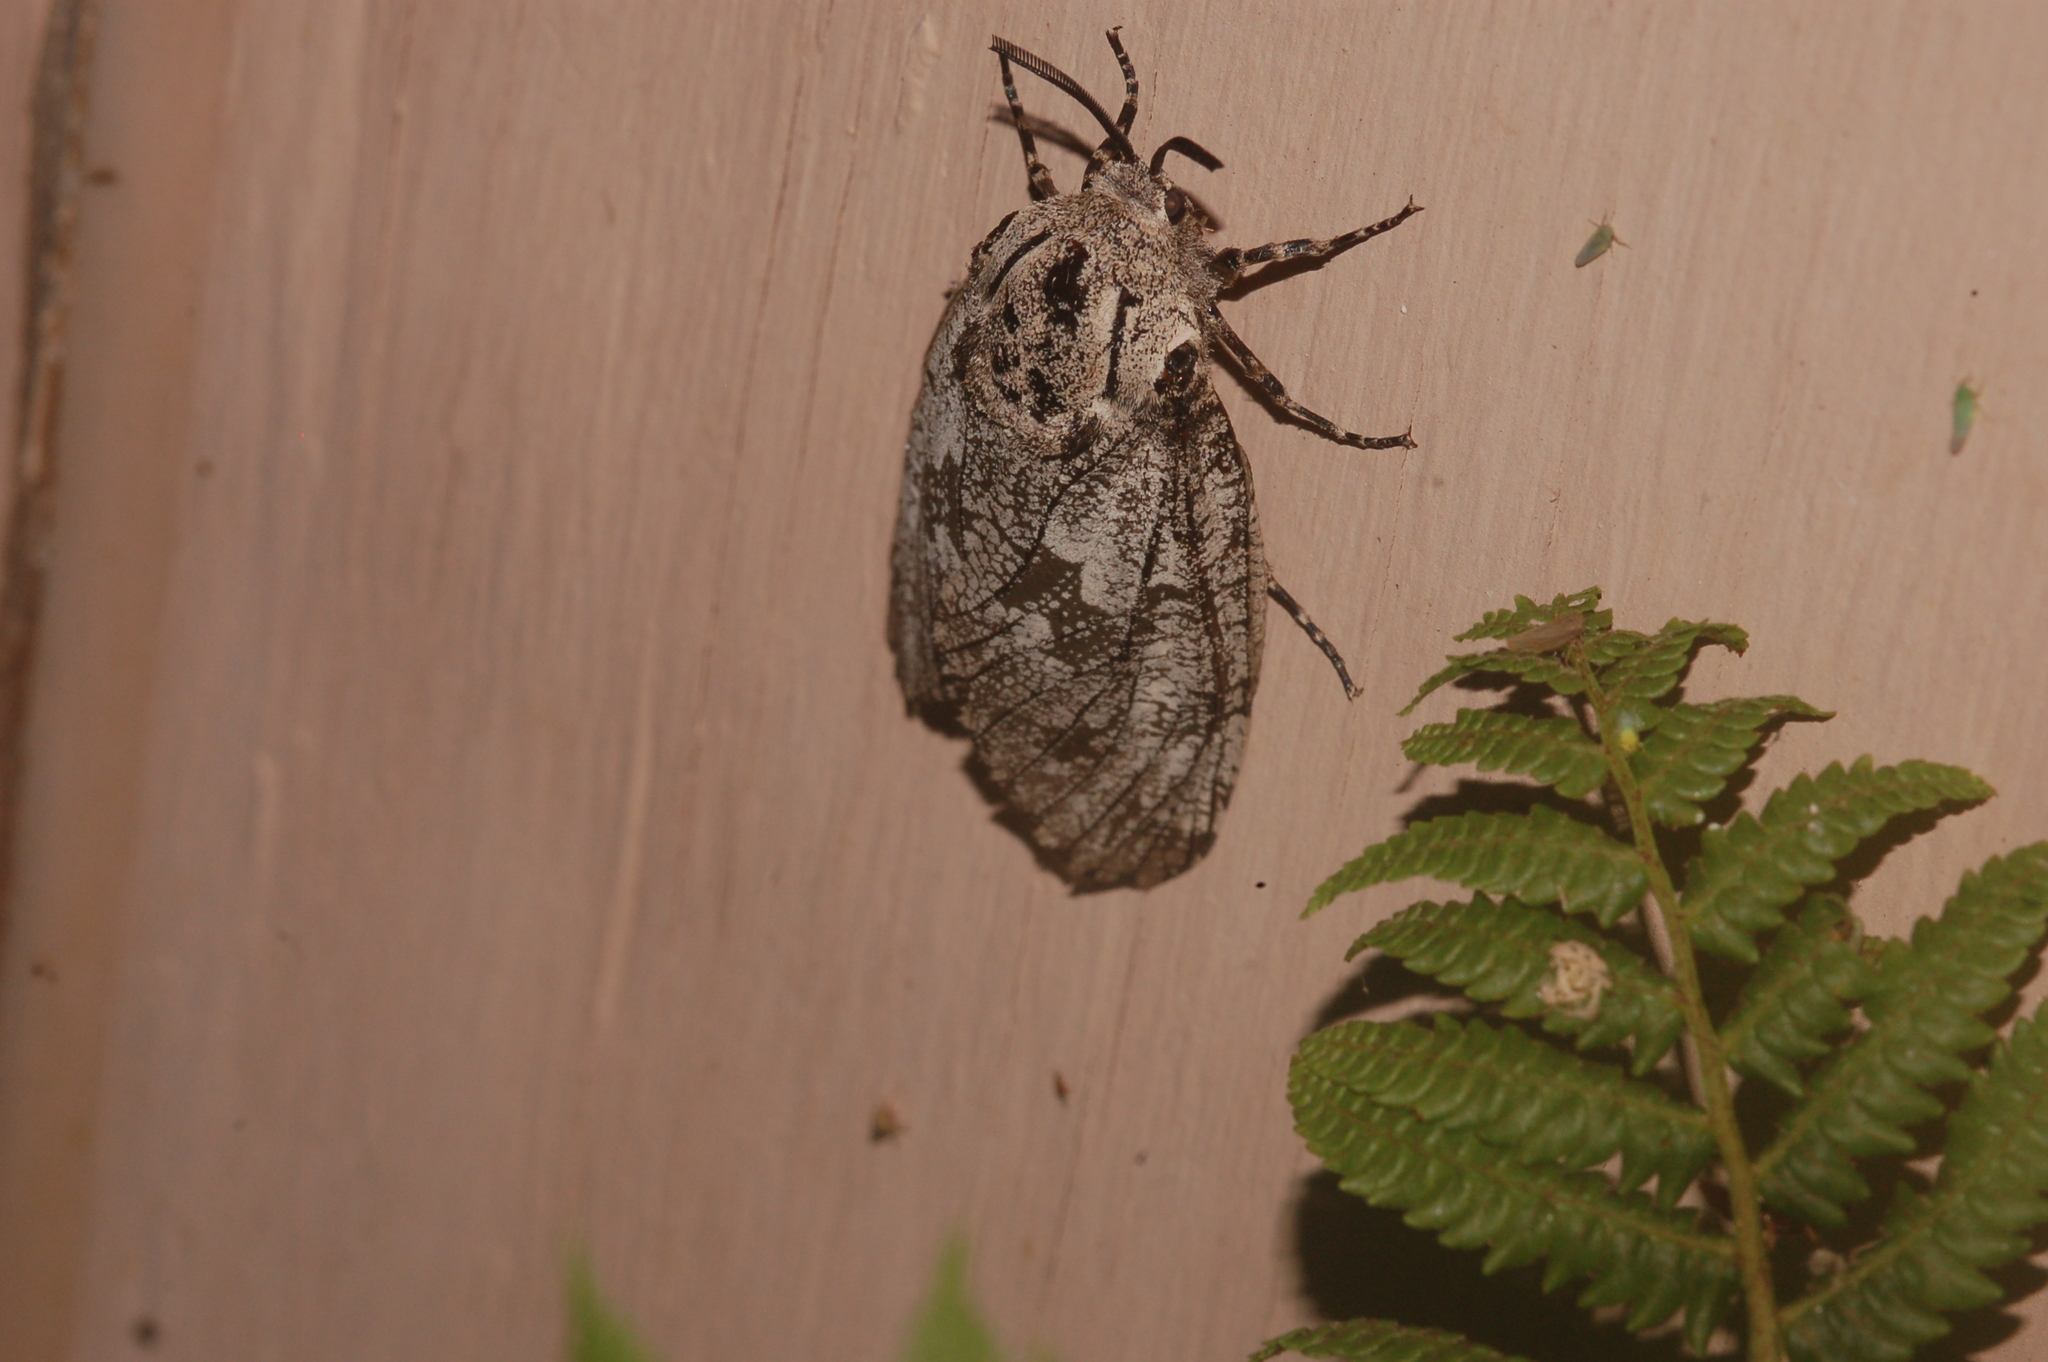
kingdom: Animalia
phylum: Arthropoda
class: Insecta
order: Lepidoptera
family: Cossidae
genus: Prionoxystus
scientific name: Prionoxystus robiniae
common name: Carpenterworm
